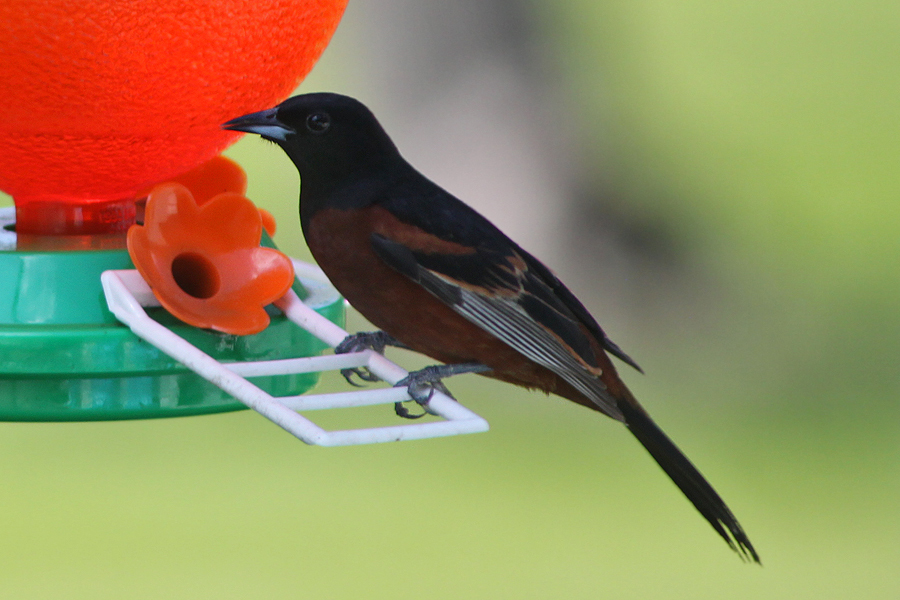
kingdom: Animalia
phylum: Chordata
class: Aves
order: Passeriformes
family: Icteridae
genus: Icterus
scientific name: Icterus spurius
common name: Orchard oriole
